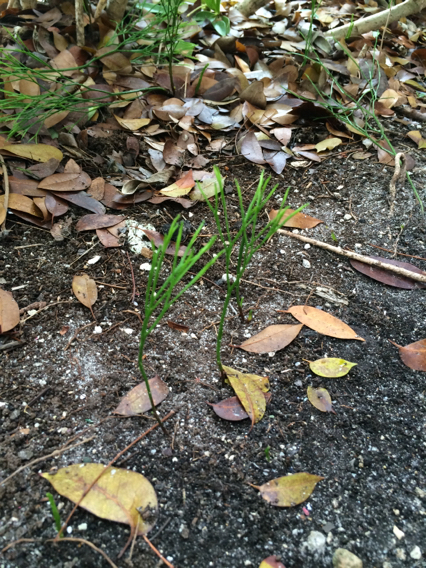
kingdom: Plantae
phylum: Tracheophyta
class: Polypodiopsida
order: Psilotales
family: Psilotaceae
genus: Psilotum
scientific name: Psilotum nudum
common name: Skeleton fork fern
